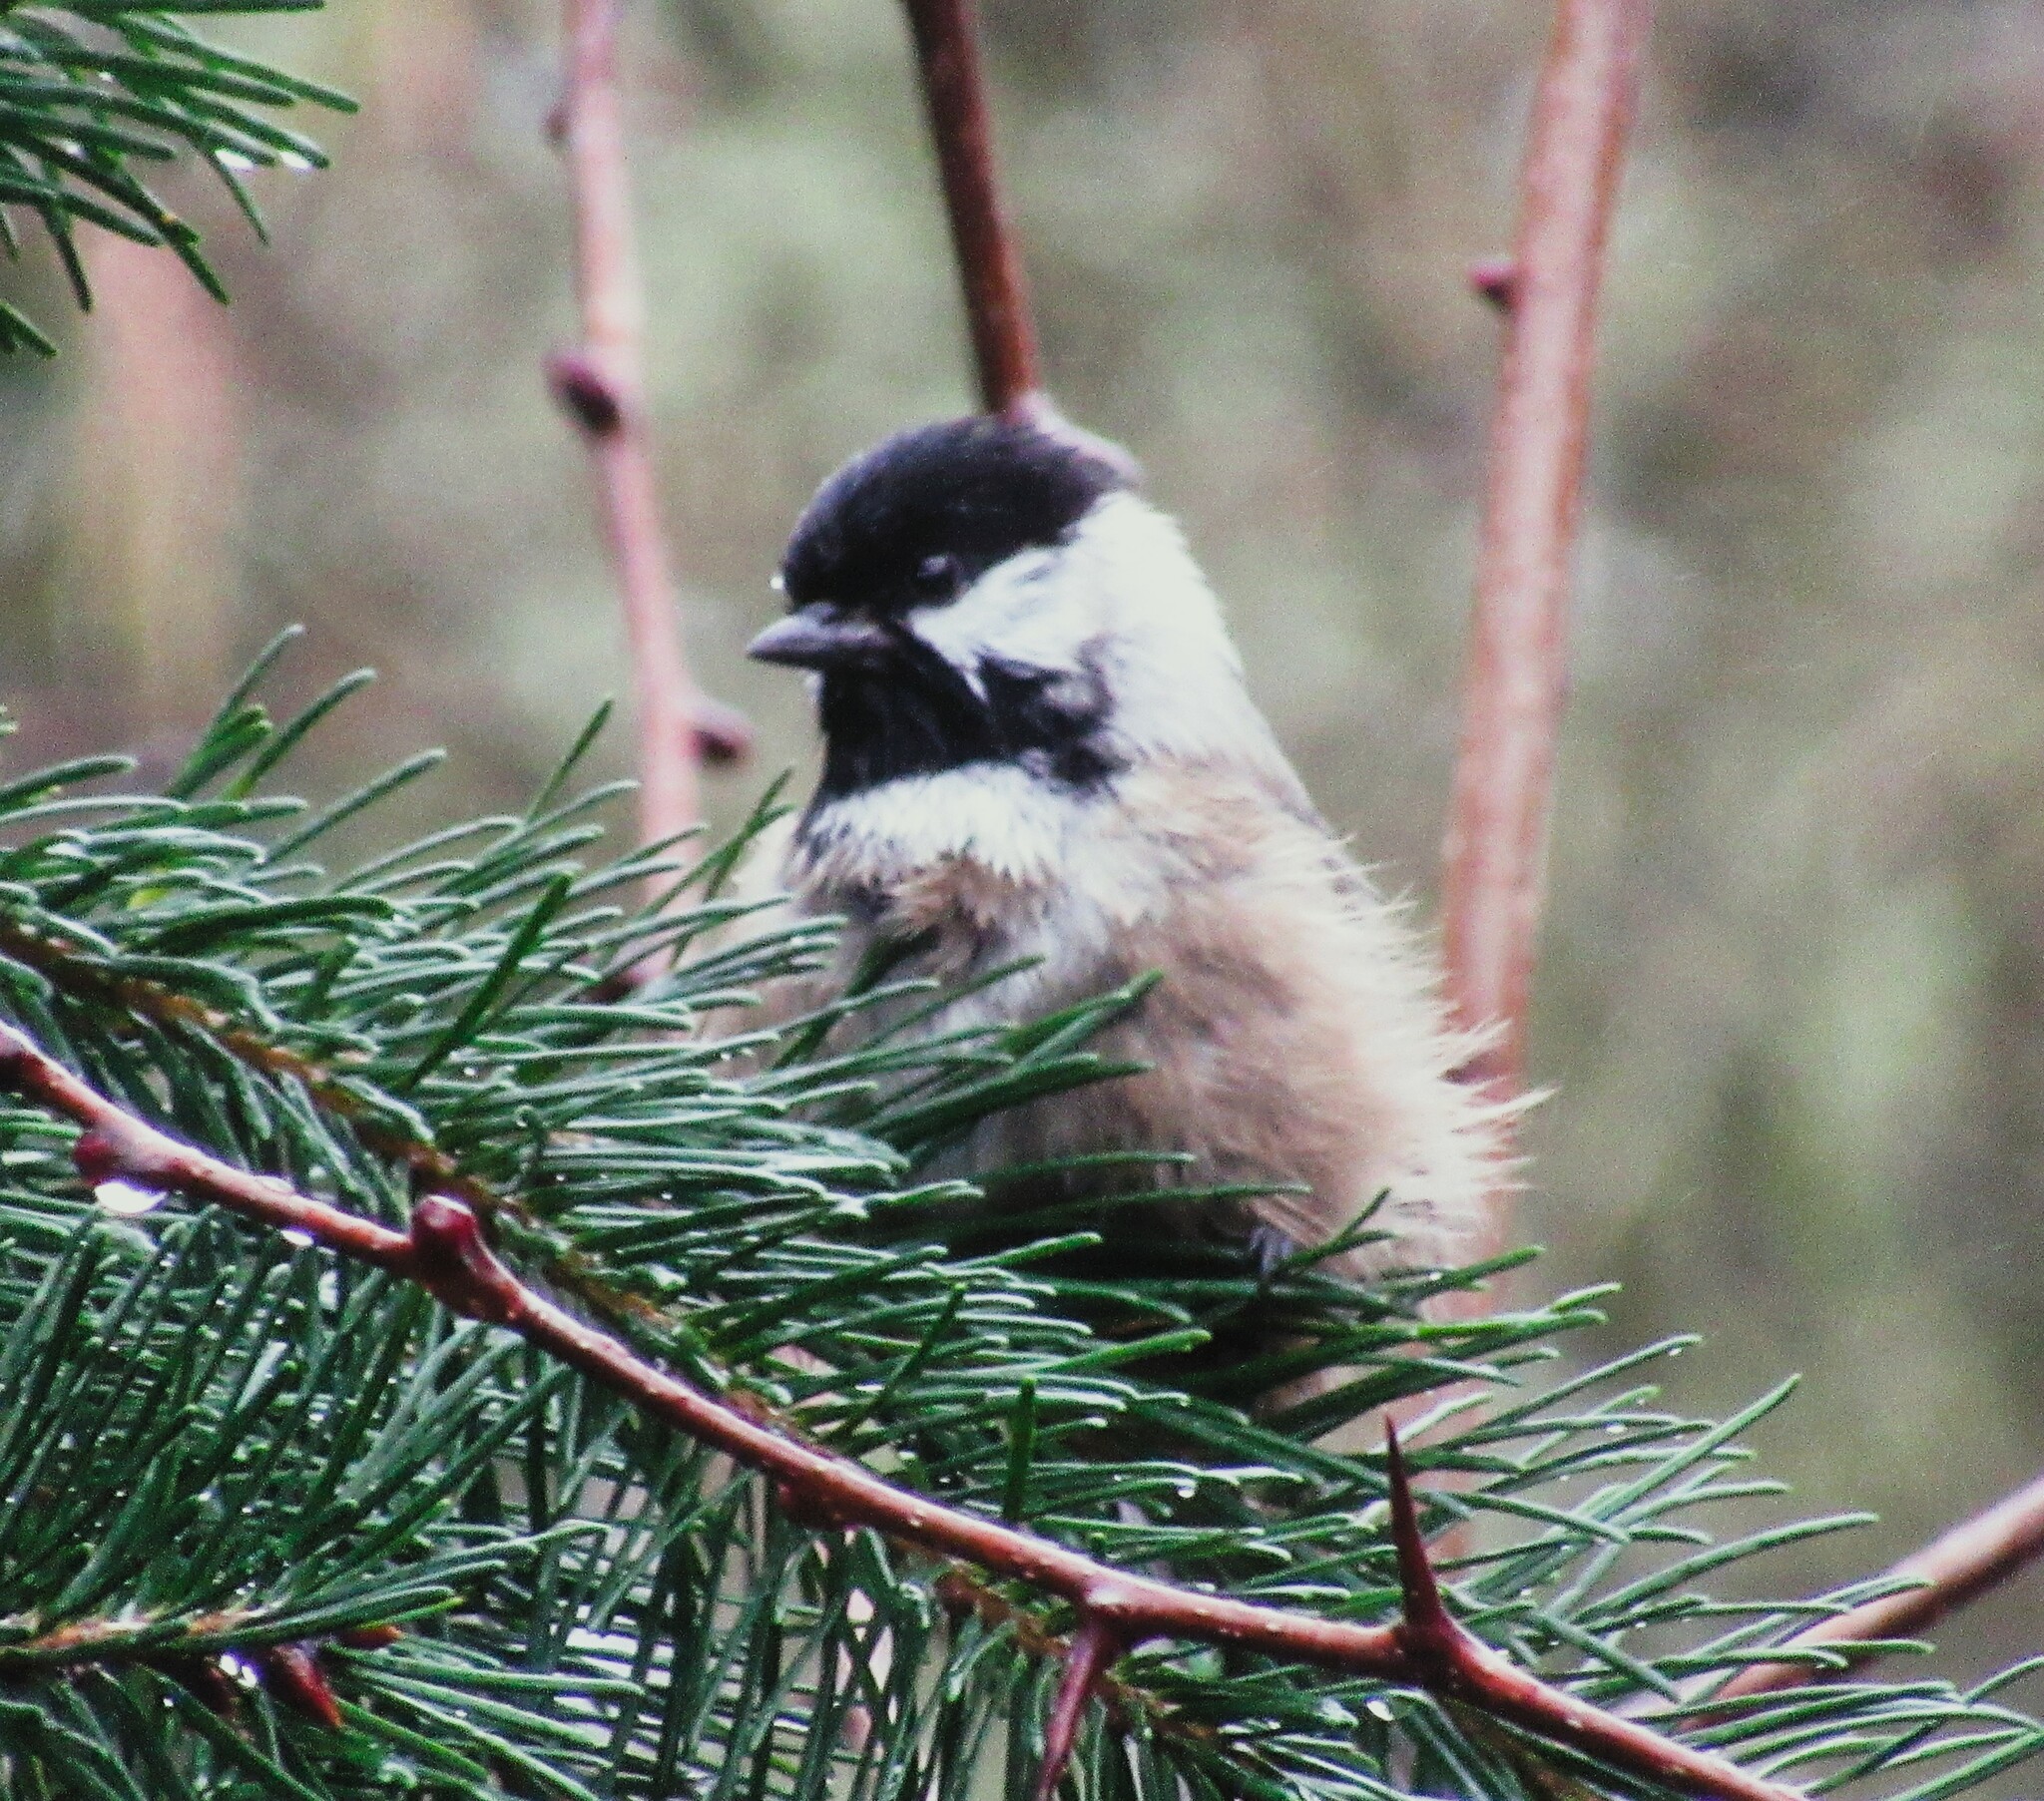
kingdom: Animalia
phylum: Chordata
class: Aves
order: Passeriformes
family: Paridae
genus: Poecile
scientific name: Poecile atricapillus
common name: Black-capped chickadee
